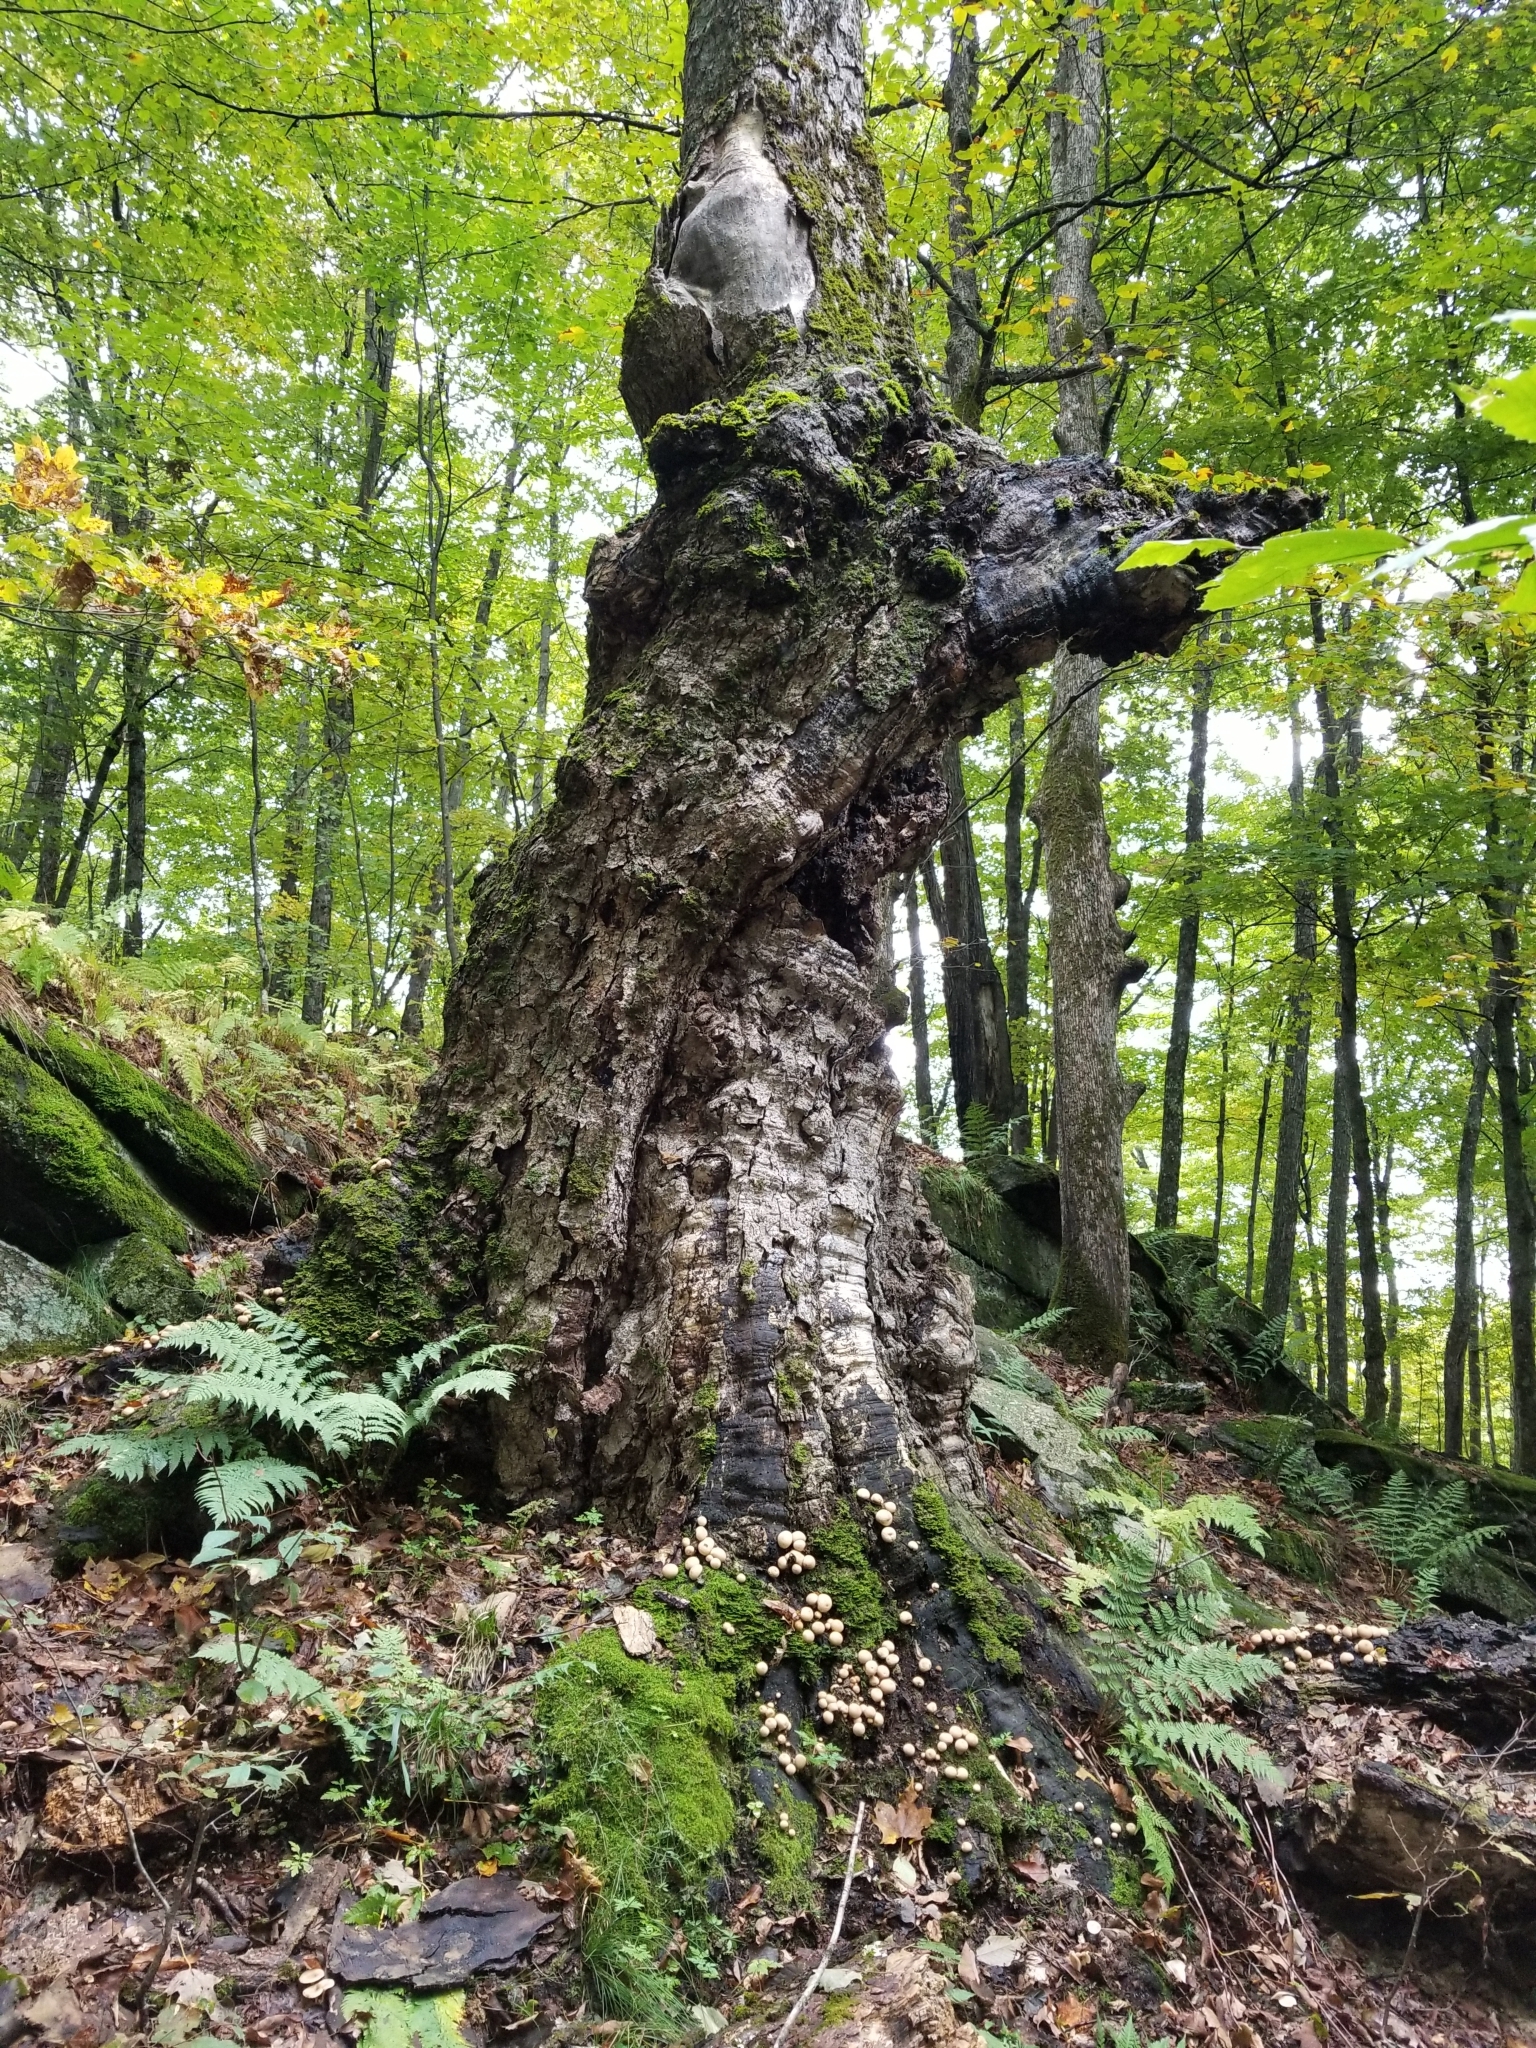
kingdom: Fungi
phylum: Basidiomycota
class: Agaricomycetes
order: Agaricales
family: Lycoperdaceae
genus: Apioperdon
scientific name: Apioperdon pyriforme
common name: Pear-shaped puffball
